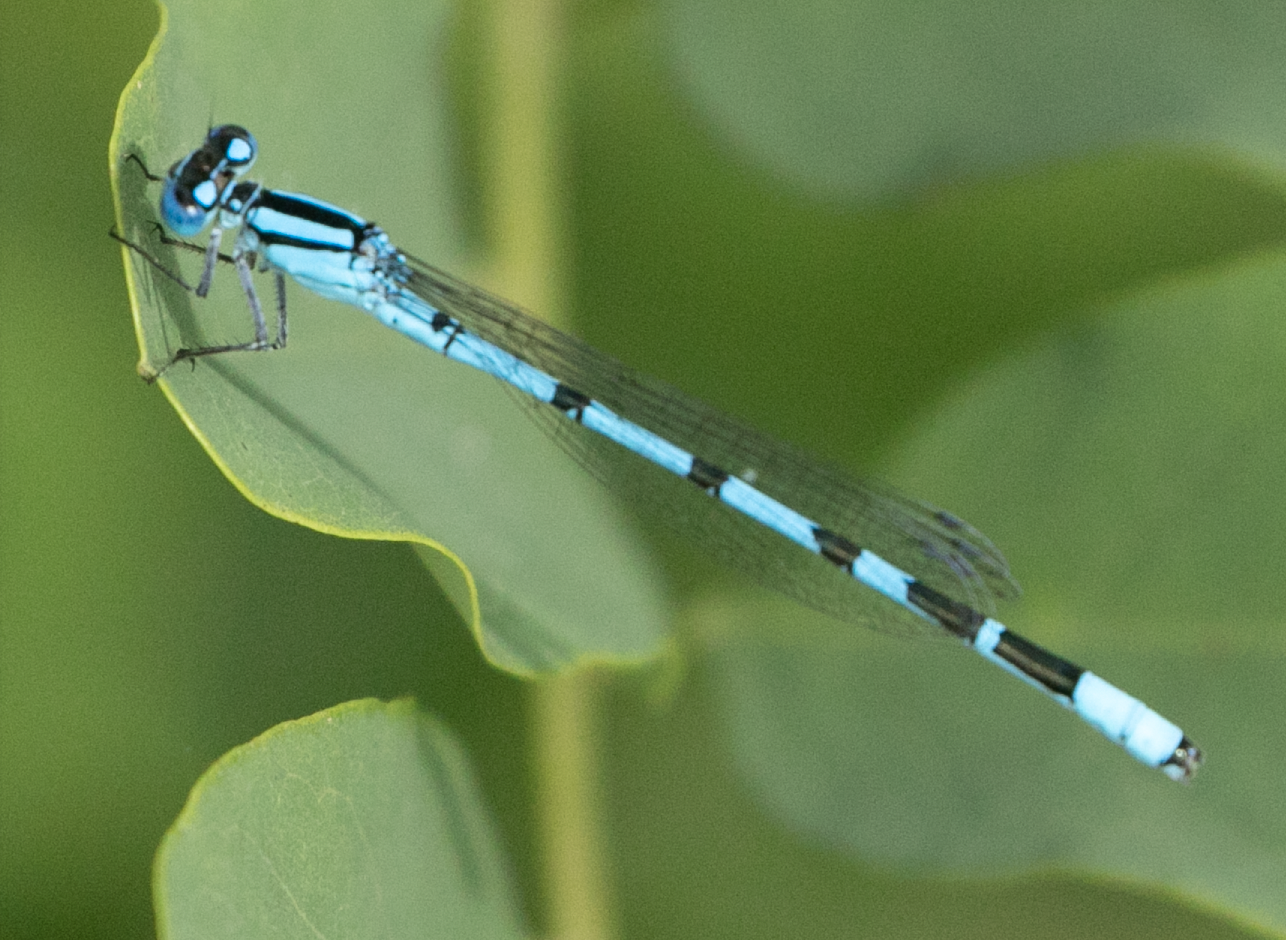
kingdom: Animalia
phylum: Arthropoda
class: Insecta
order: Odonata
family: Coenagrionidae
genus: Enallagma
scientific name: Enallagma cyathigerum
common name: Common blue damselfly
